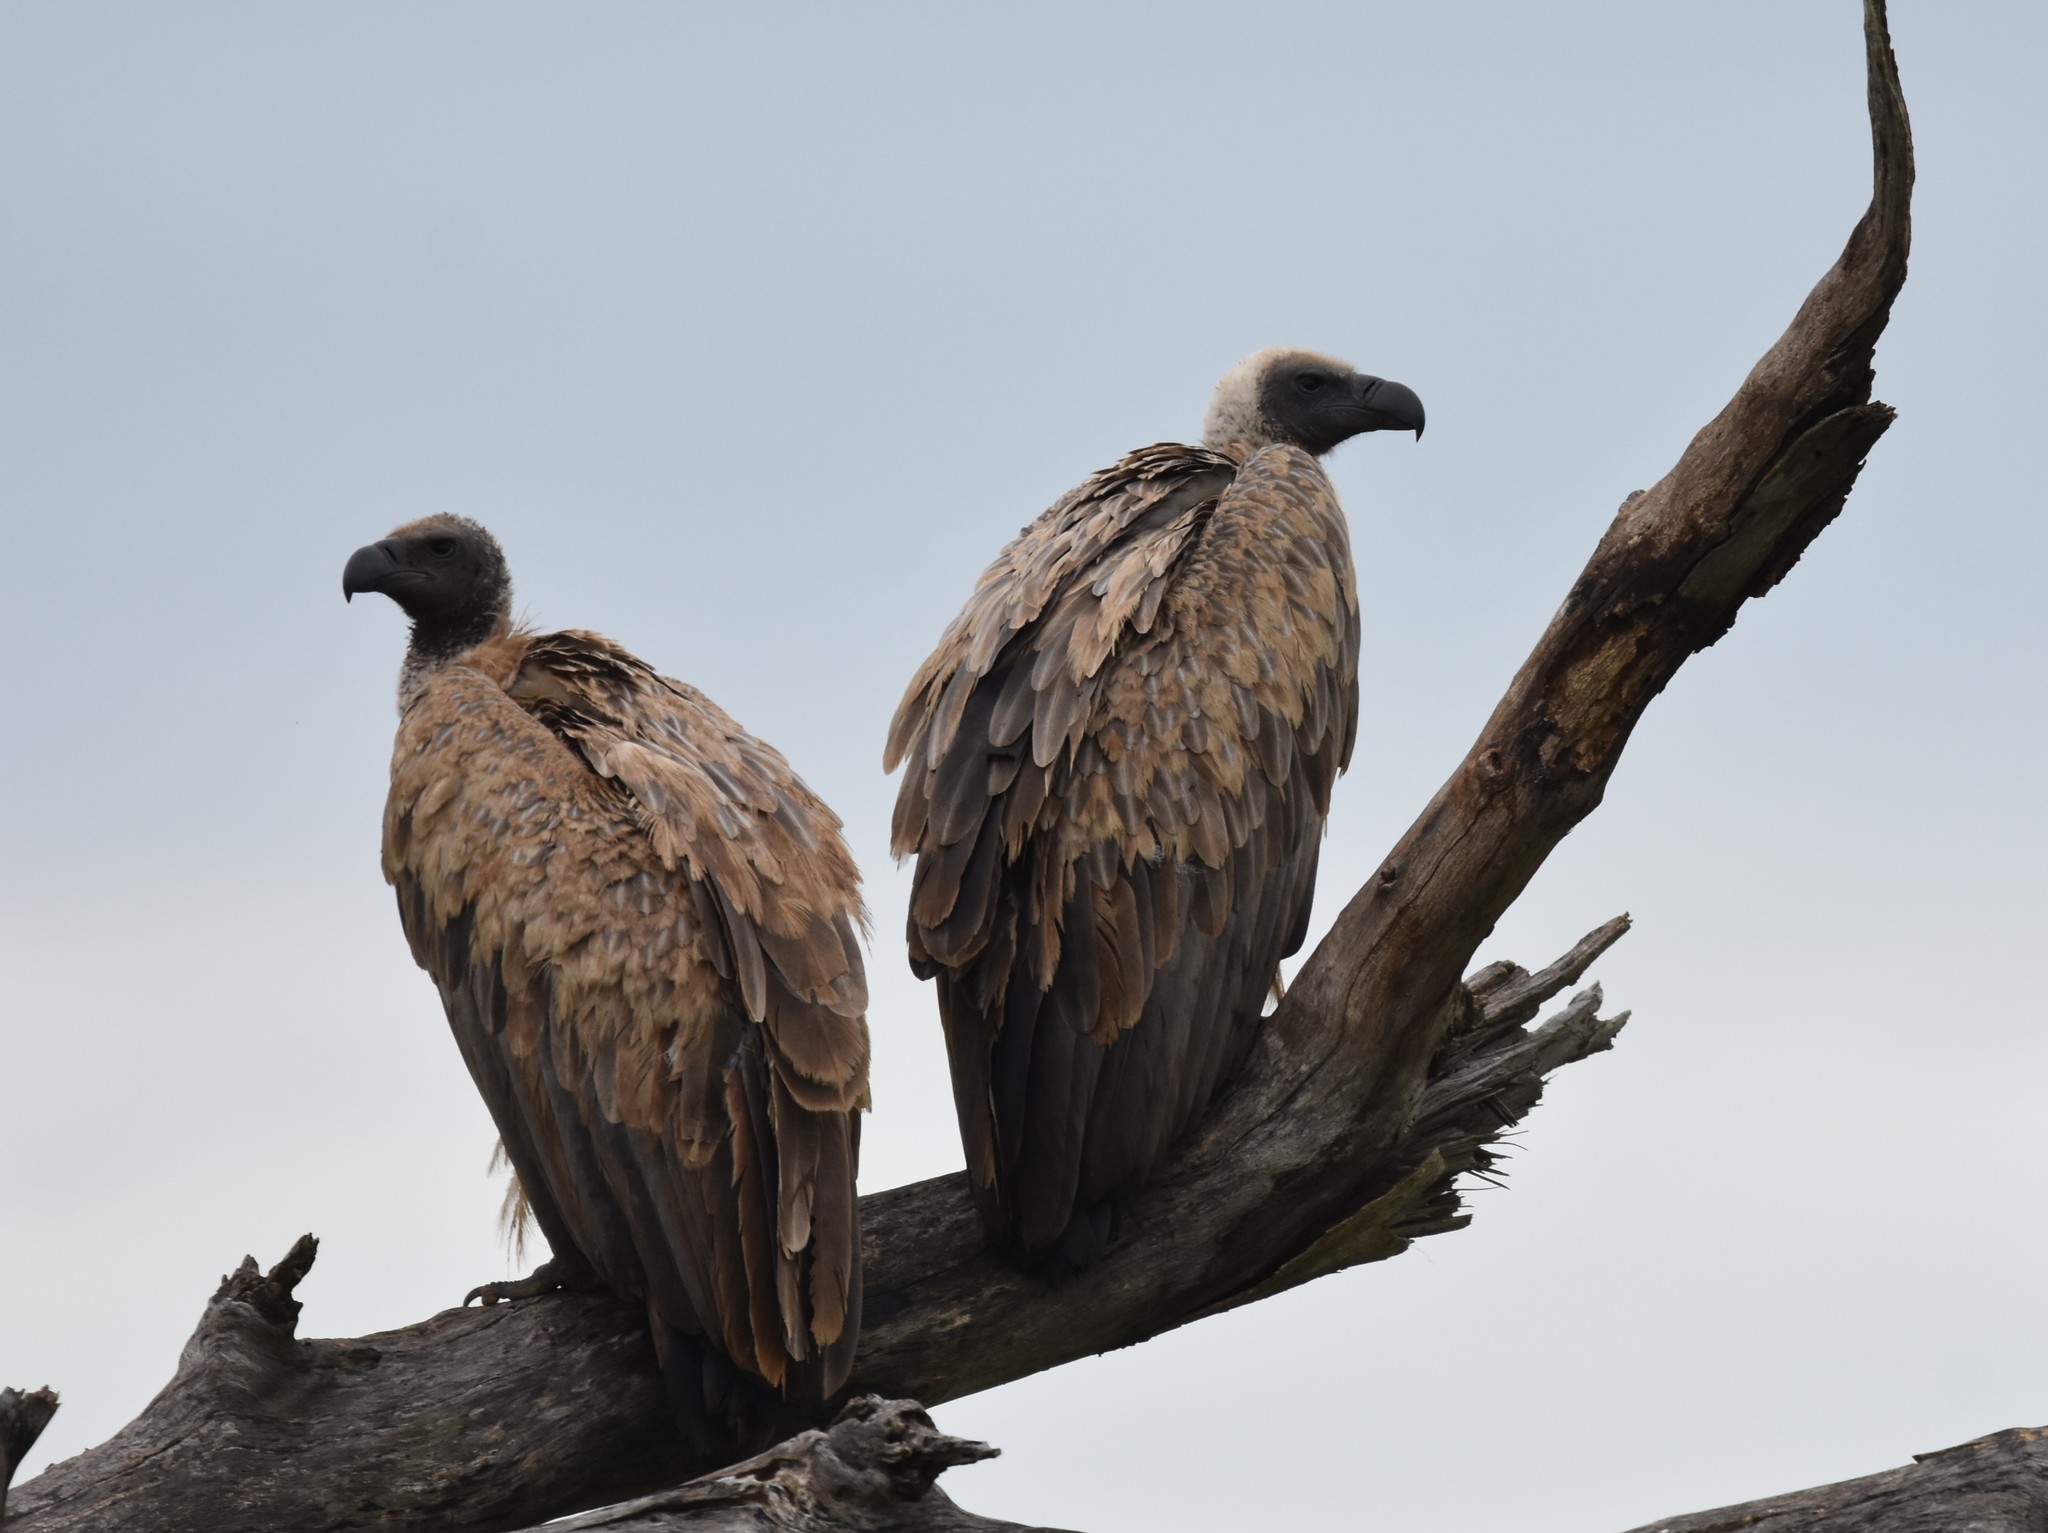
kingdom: Animalia
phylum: Chordata
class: Aves
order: Accipitriformes
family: Accipitridae
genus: Gyps
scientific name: Gyps africanus
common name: White-backed vulture
